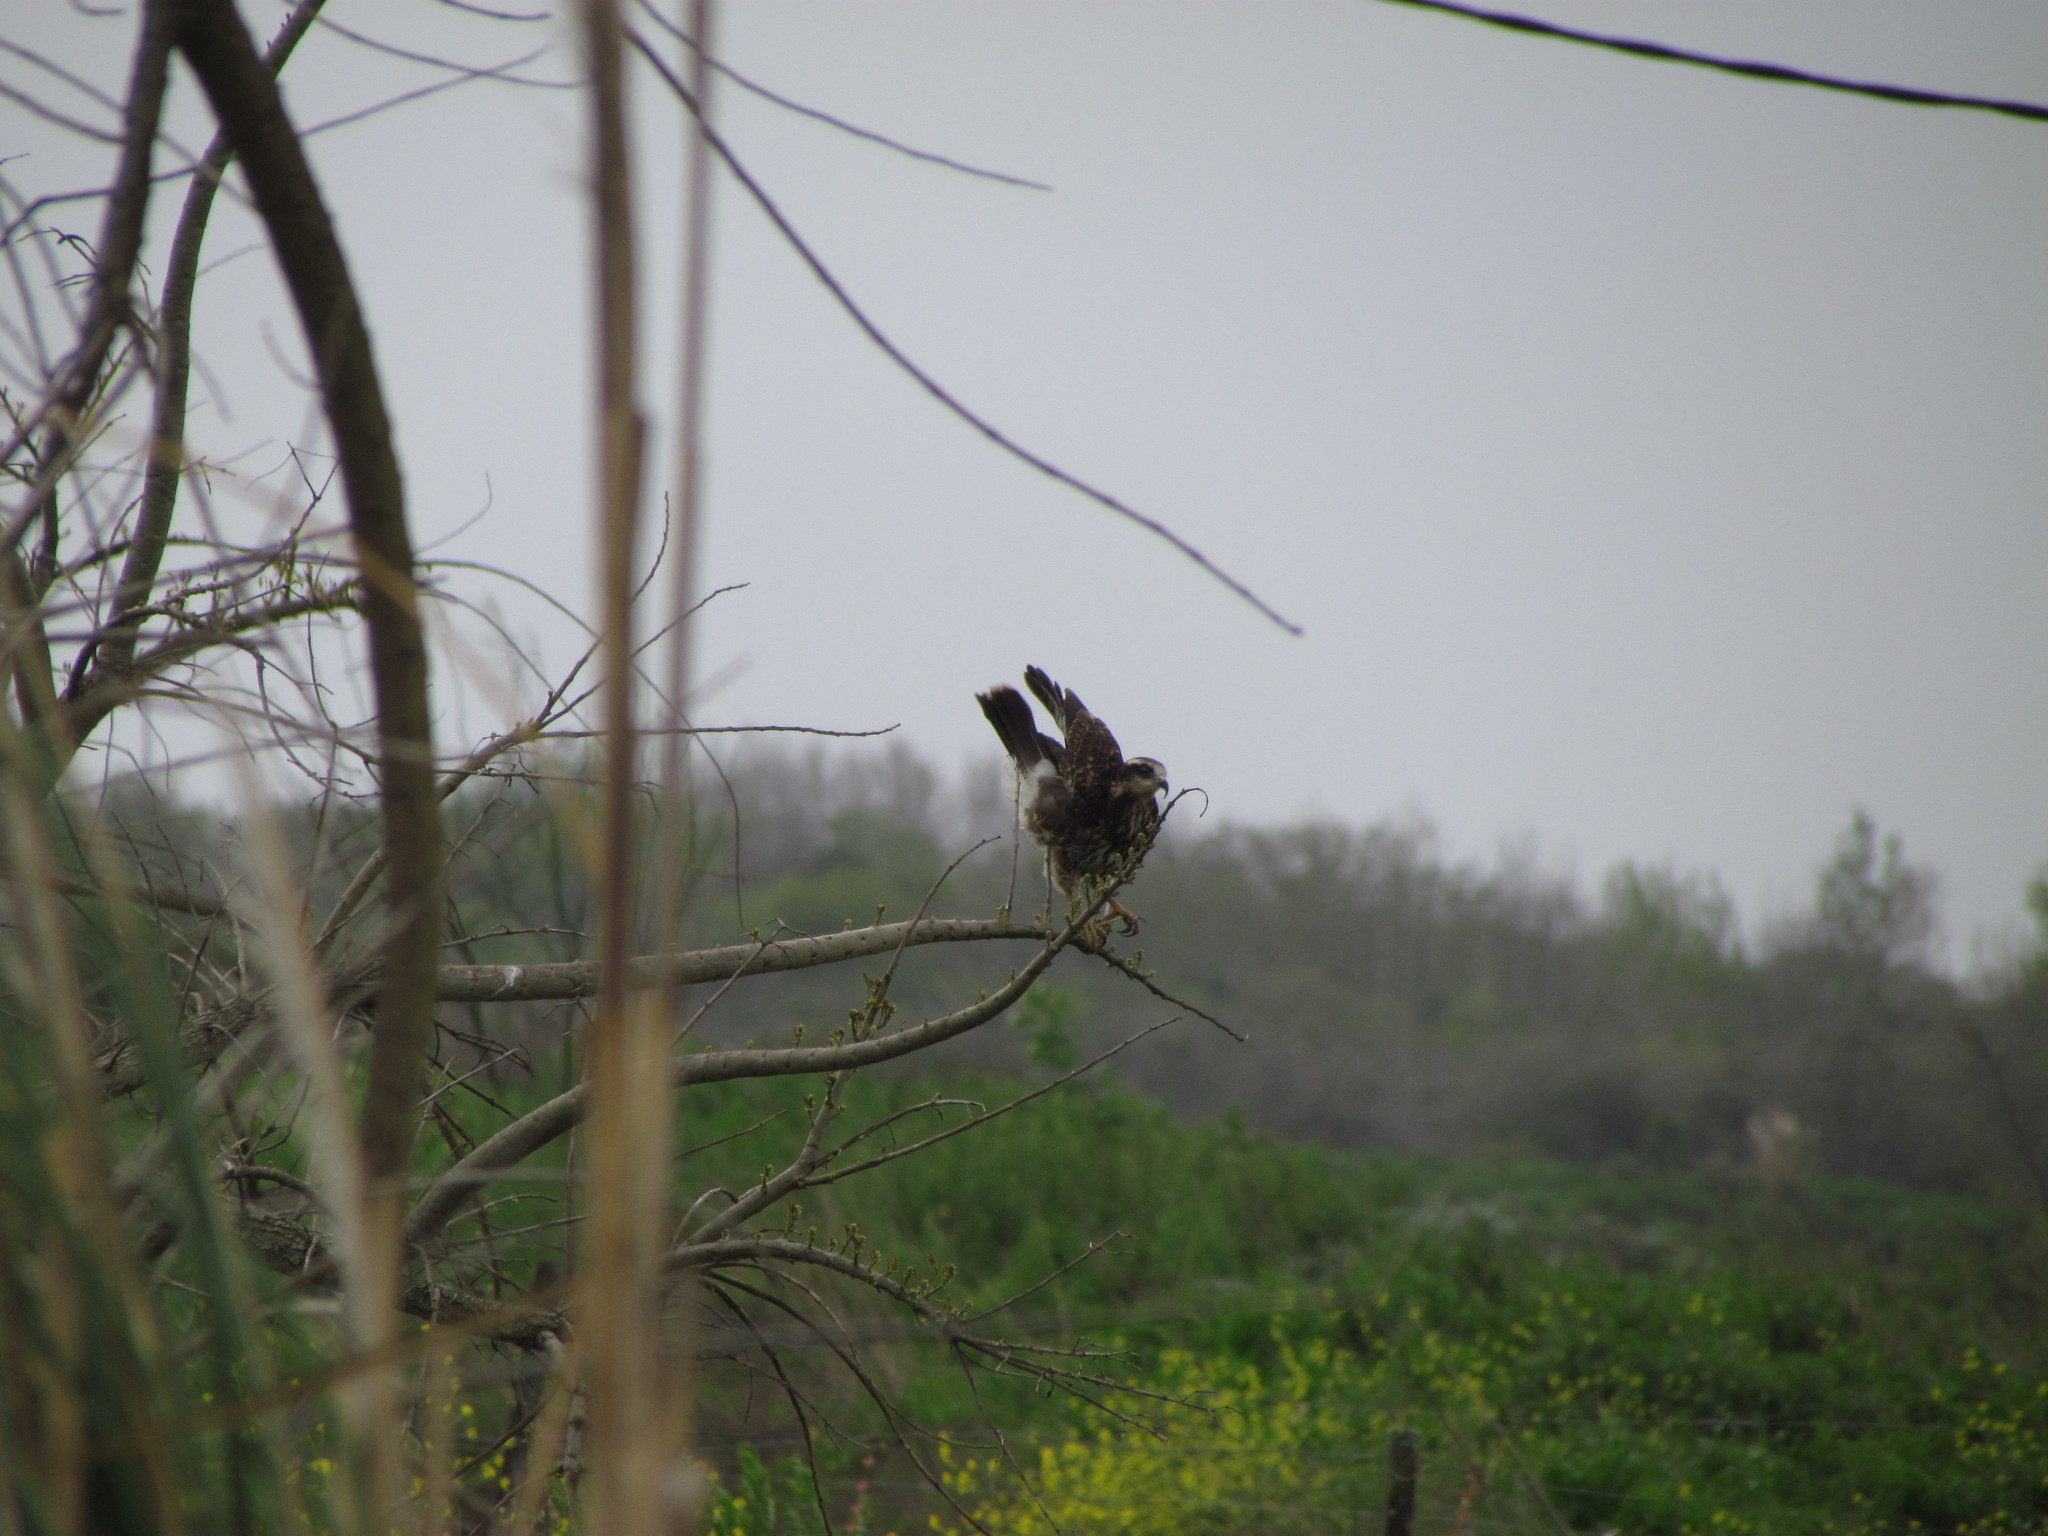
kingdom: Animalia
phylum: Chordata
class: Aves
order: Accipitriformes
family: Accipitridae
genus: Rostrhamus
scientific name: Rostrhamus sociabilis
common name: Snail kite
